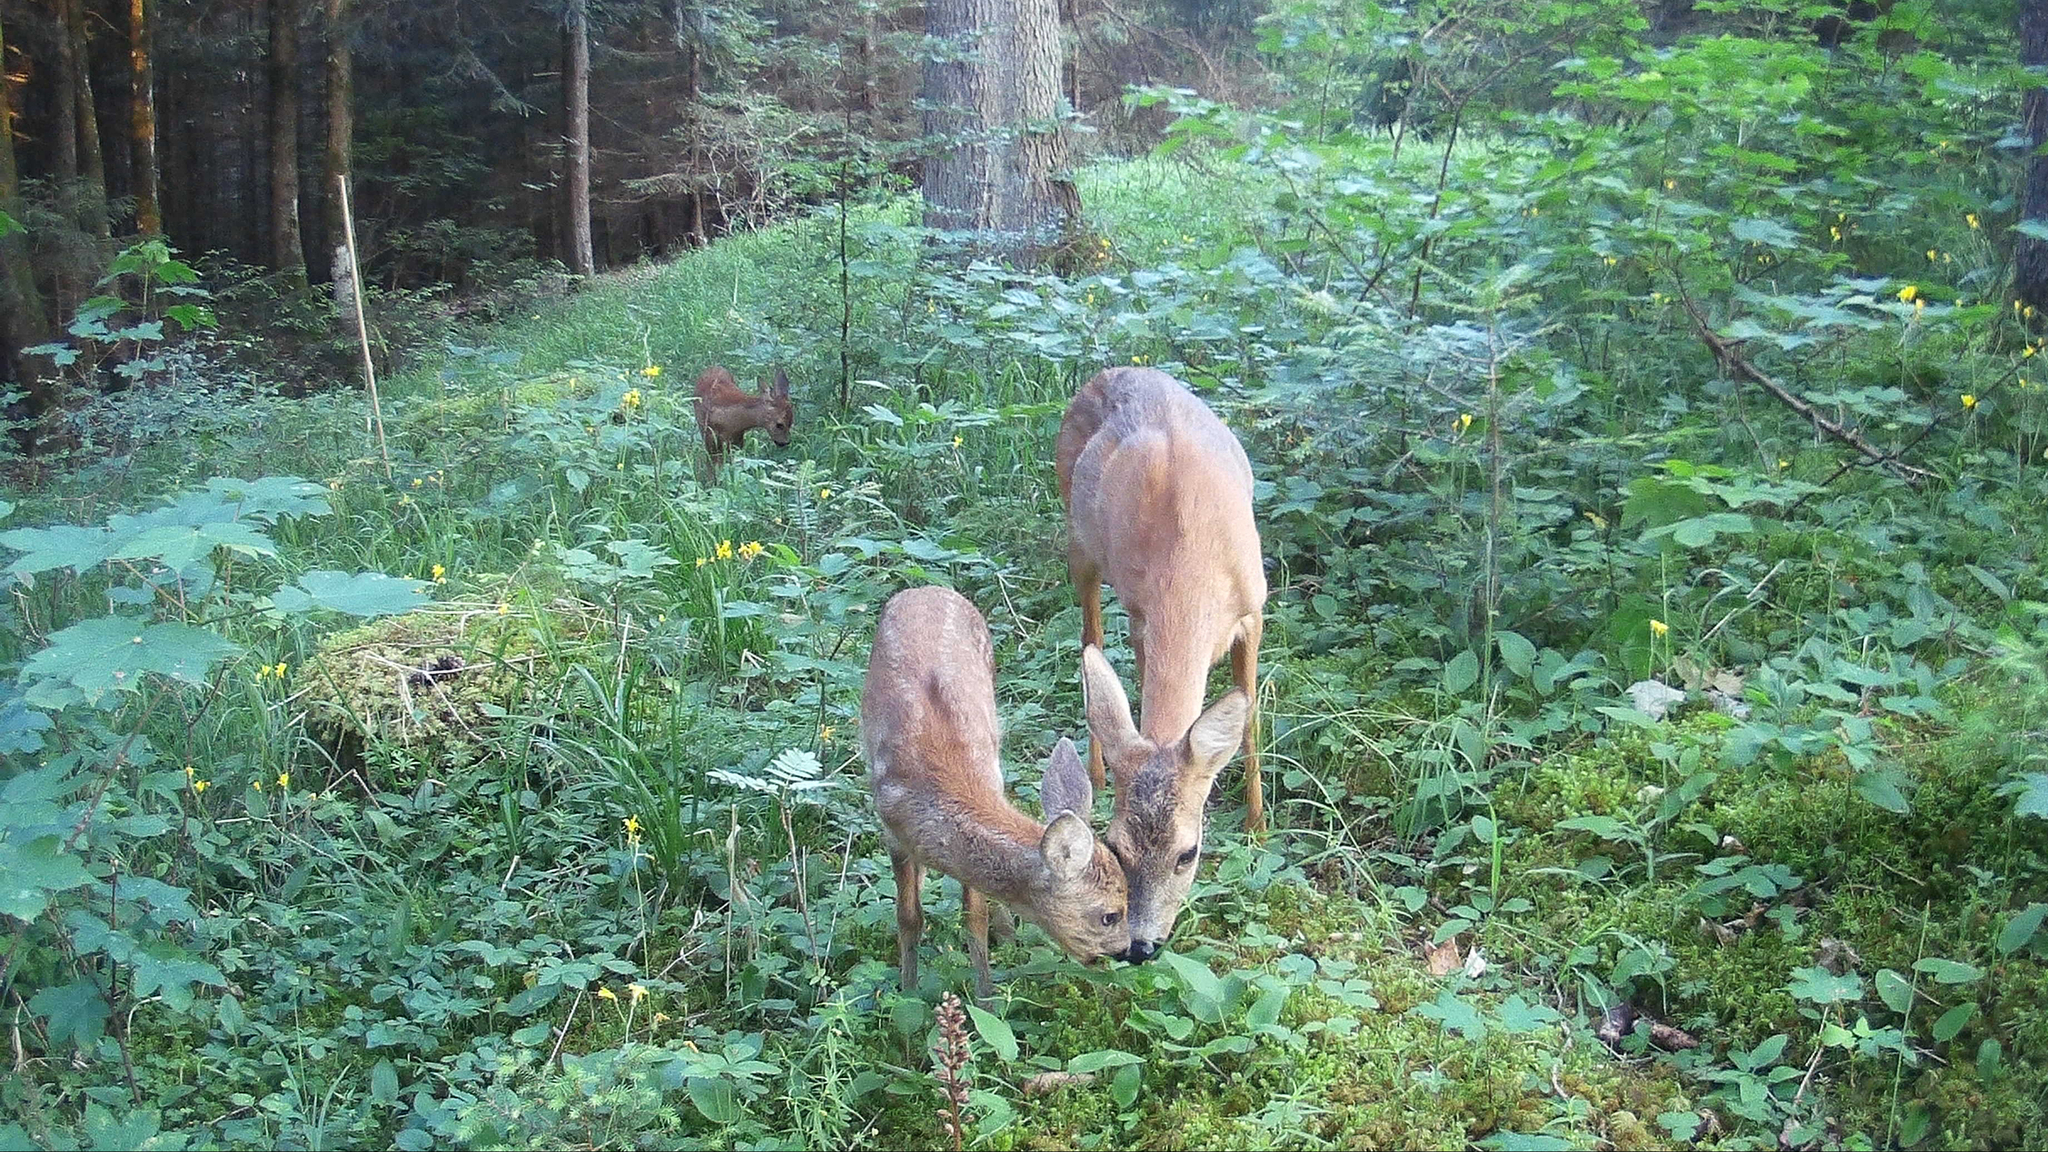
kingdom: Animalia
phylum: Chordata
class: Mammalia
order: Artiodactyla
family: Cervidae
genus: Capreolus
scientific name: Capreolus capreolus
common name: Western roe deer
